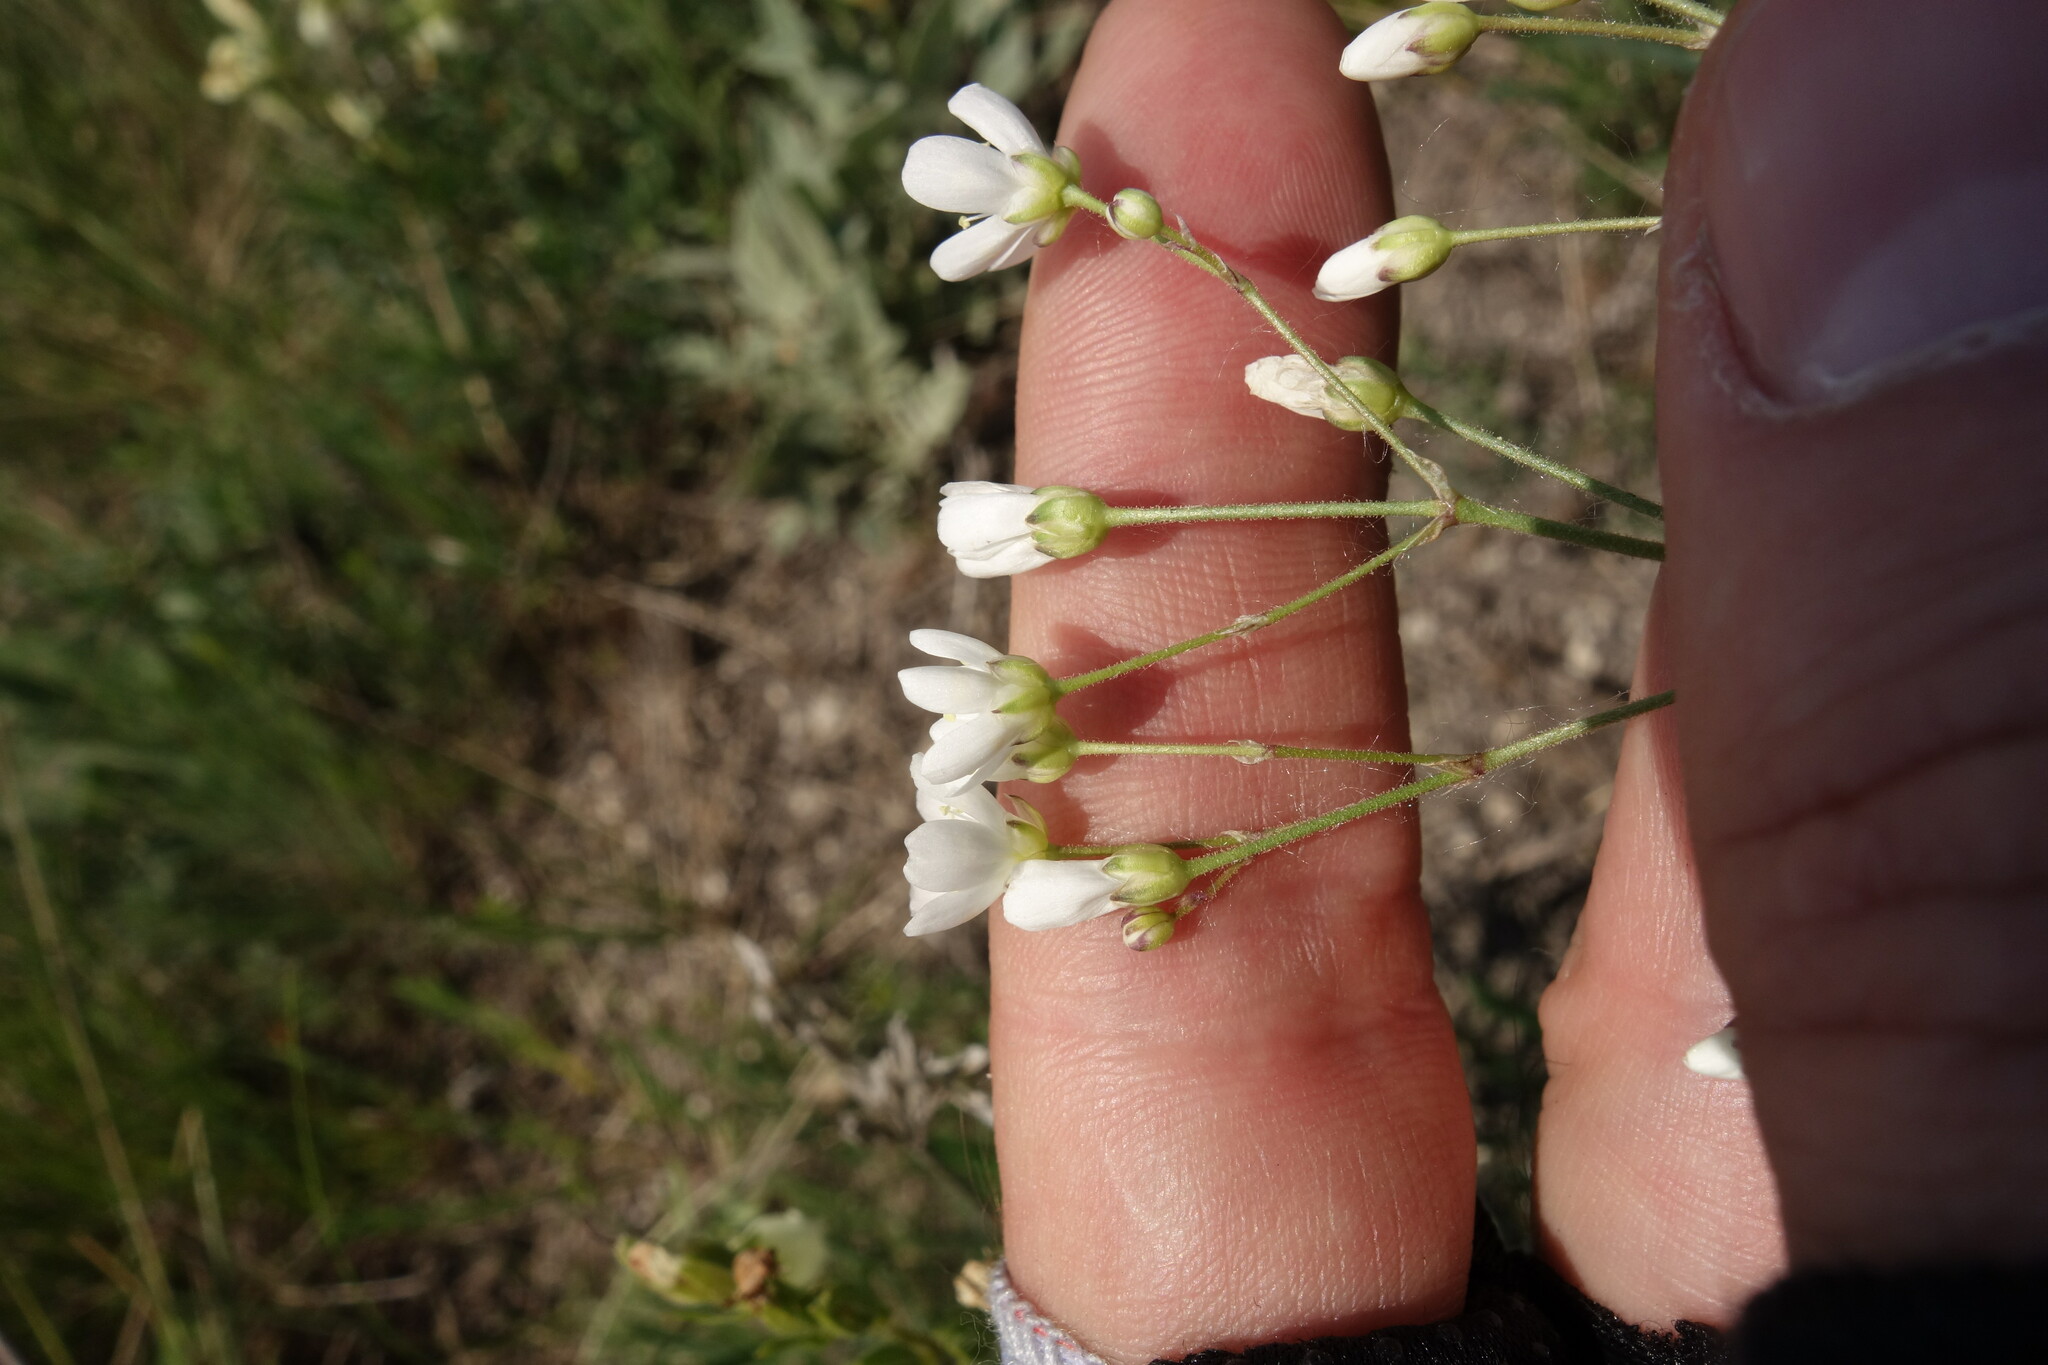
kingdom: Plantae
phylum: Tracheophyta
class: Magnoliopsida
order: Caryophyllales
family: Caryophyllaceae
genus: Eremogone
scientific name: Eremogone biebersteinii
